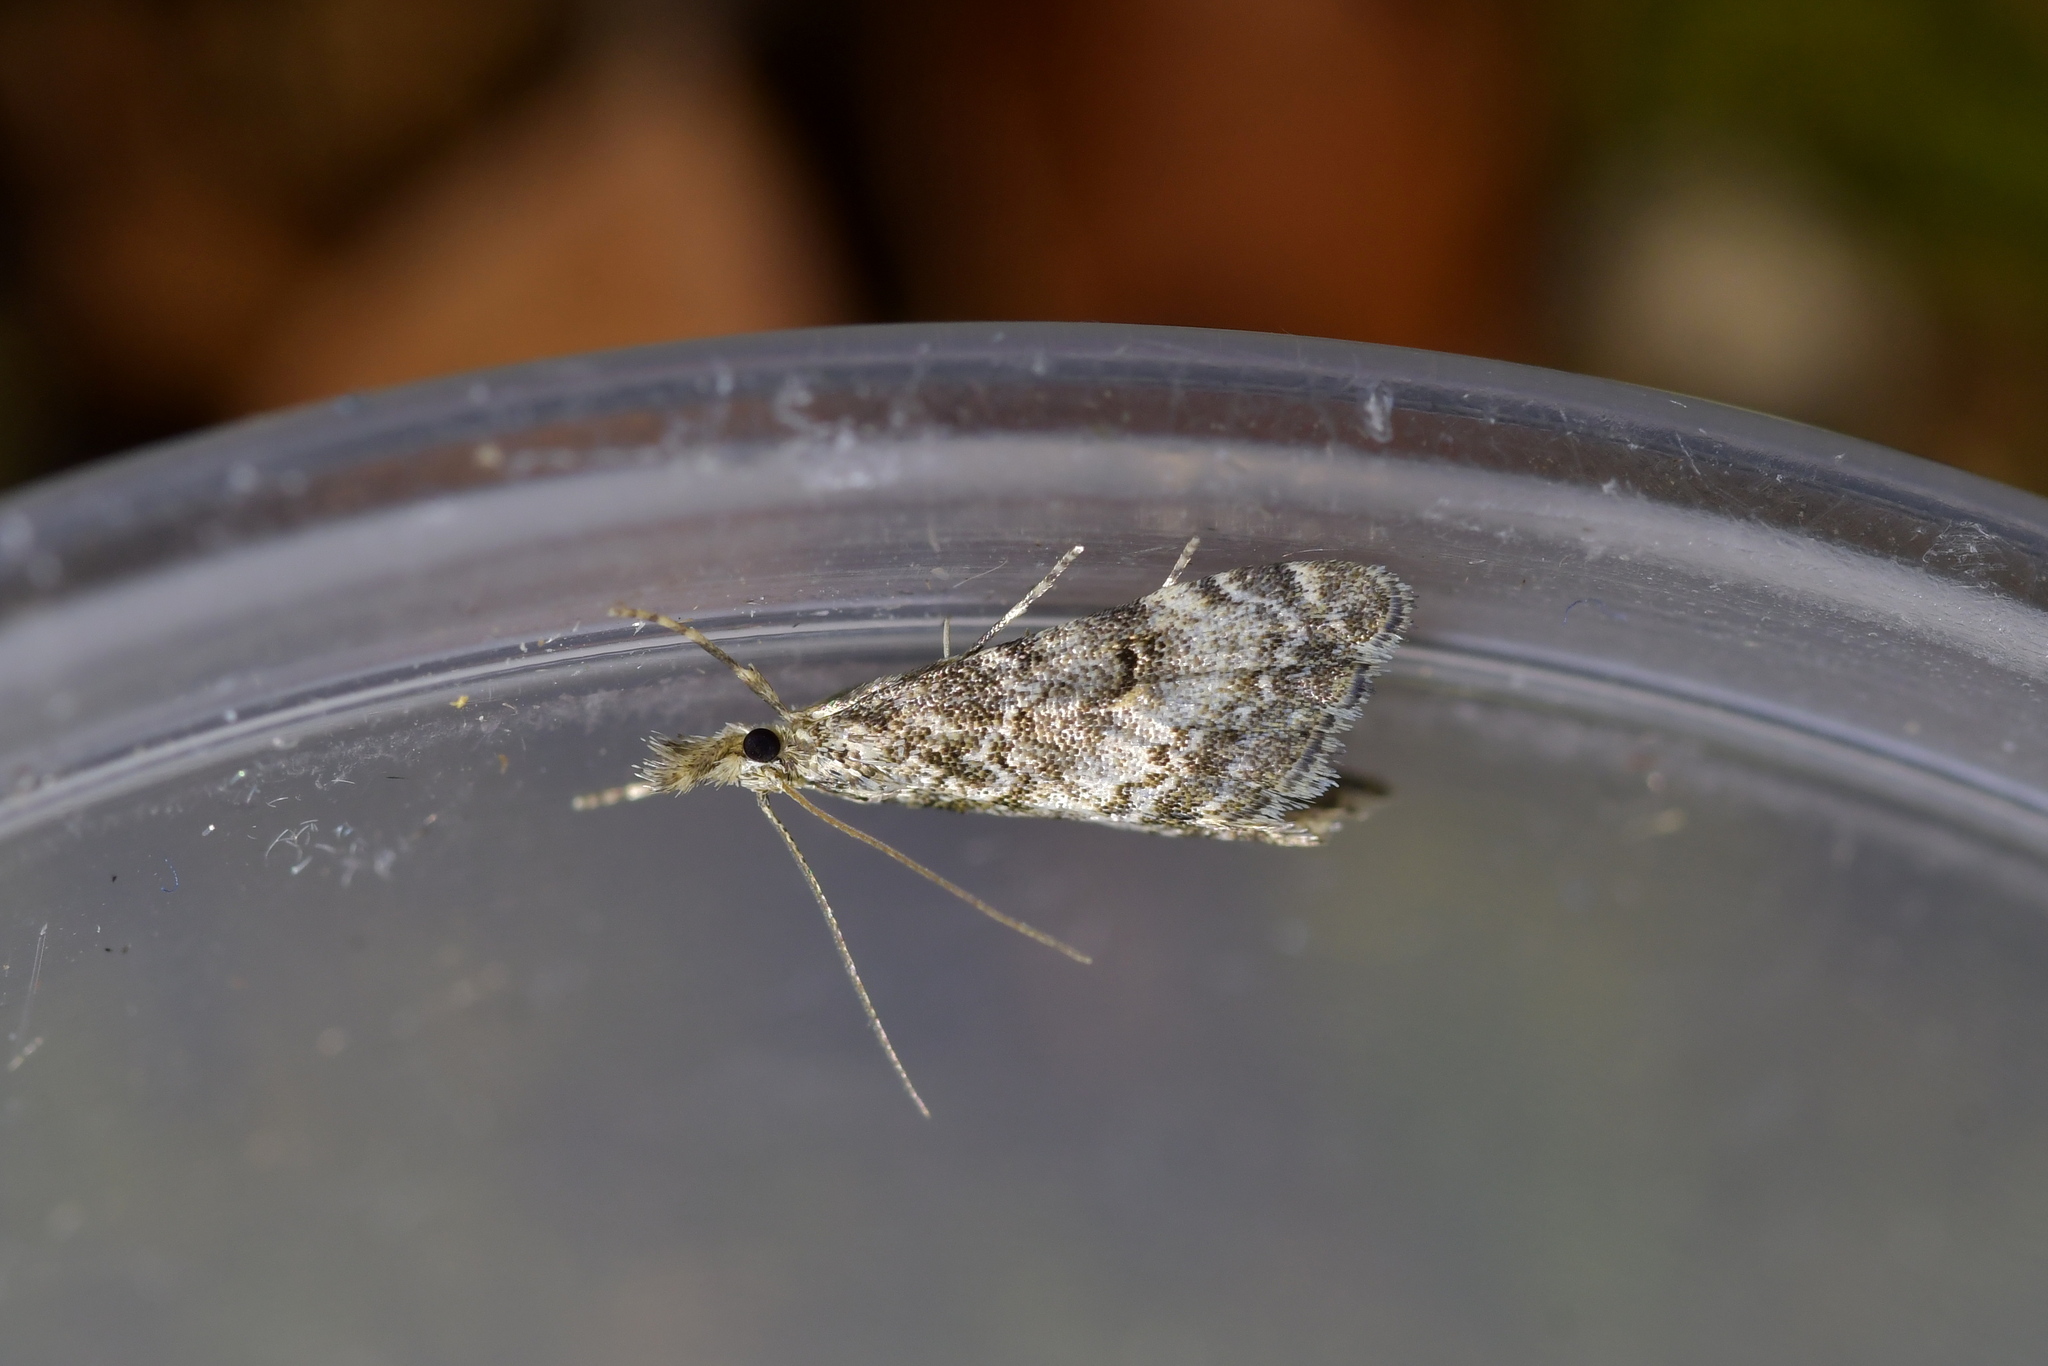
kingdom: Animalia
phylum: Arthropoda
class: Insecta
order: Lepidoptera
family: Crambidae
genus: Glaucocharis
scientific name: Glaucocharis elaina
